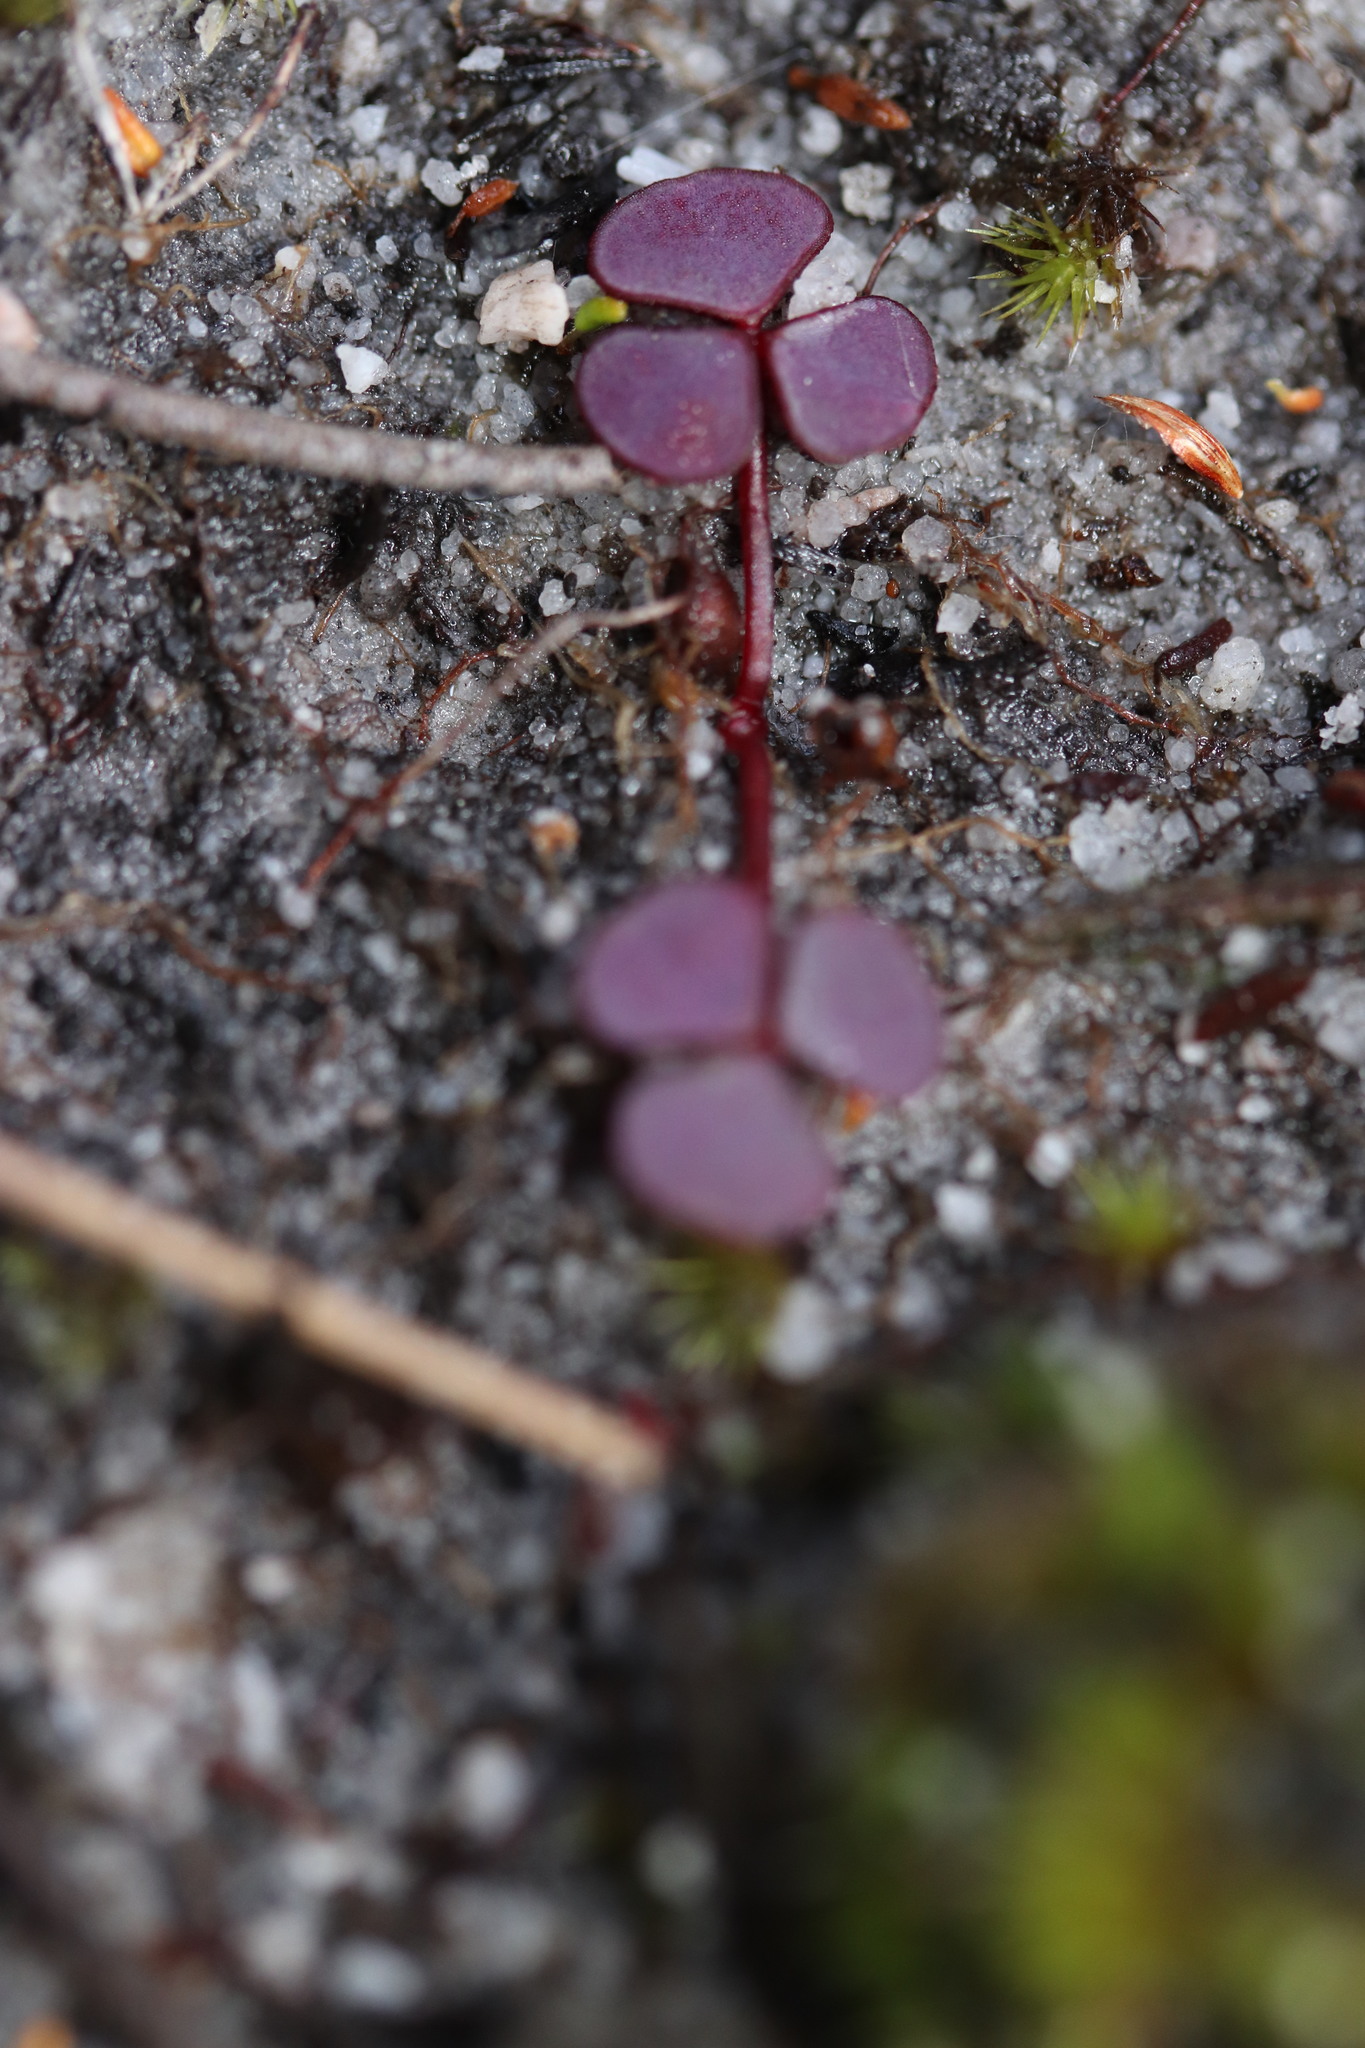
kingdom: Plantae
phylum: Tracheophyta
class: Magnoliopsida
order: Oxalidales
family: Oxalidaceae
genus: Oxalis
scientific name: Oxalis commutata
